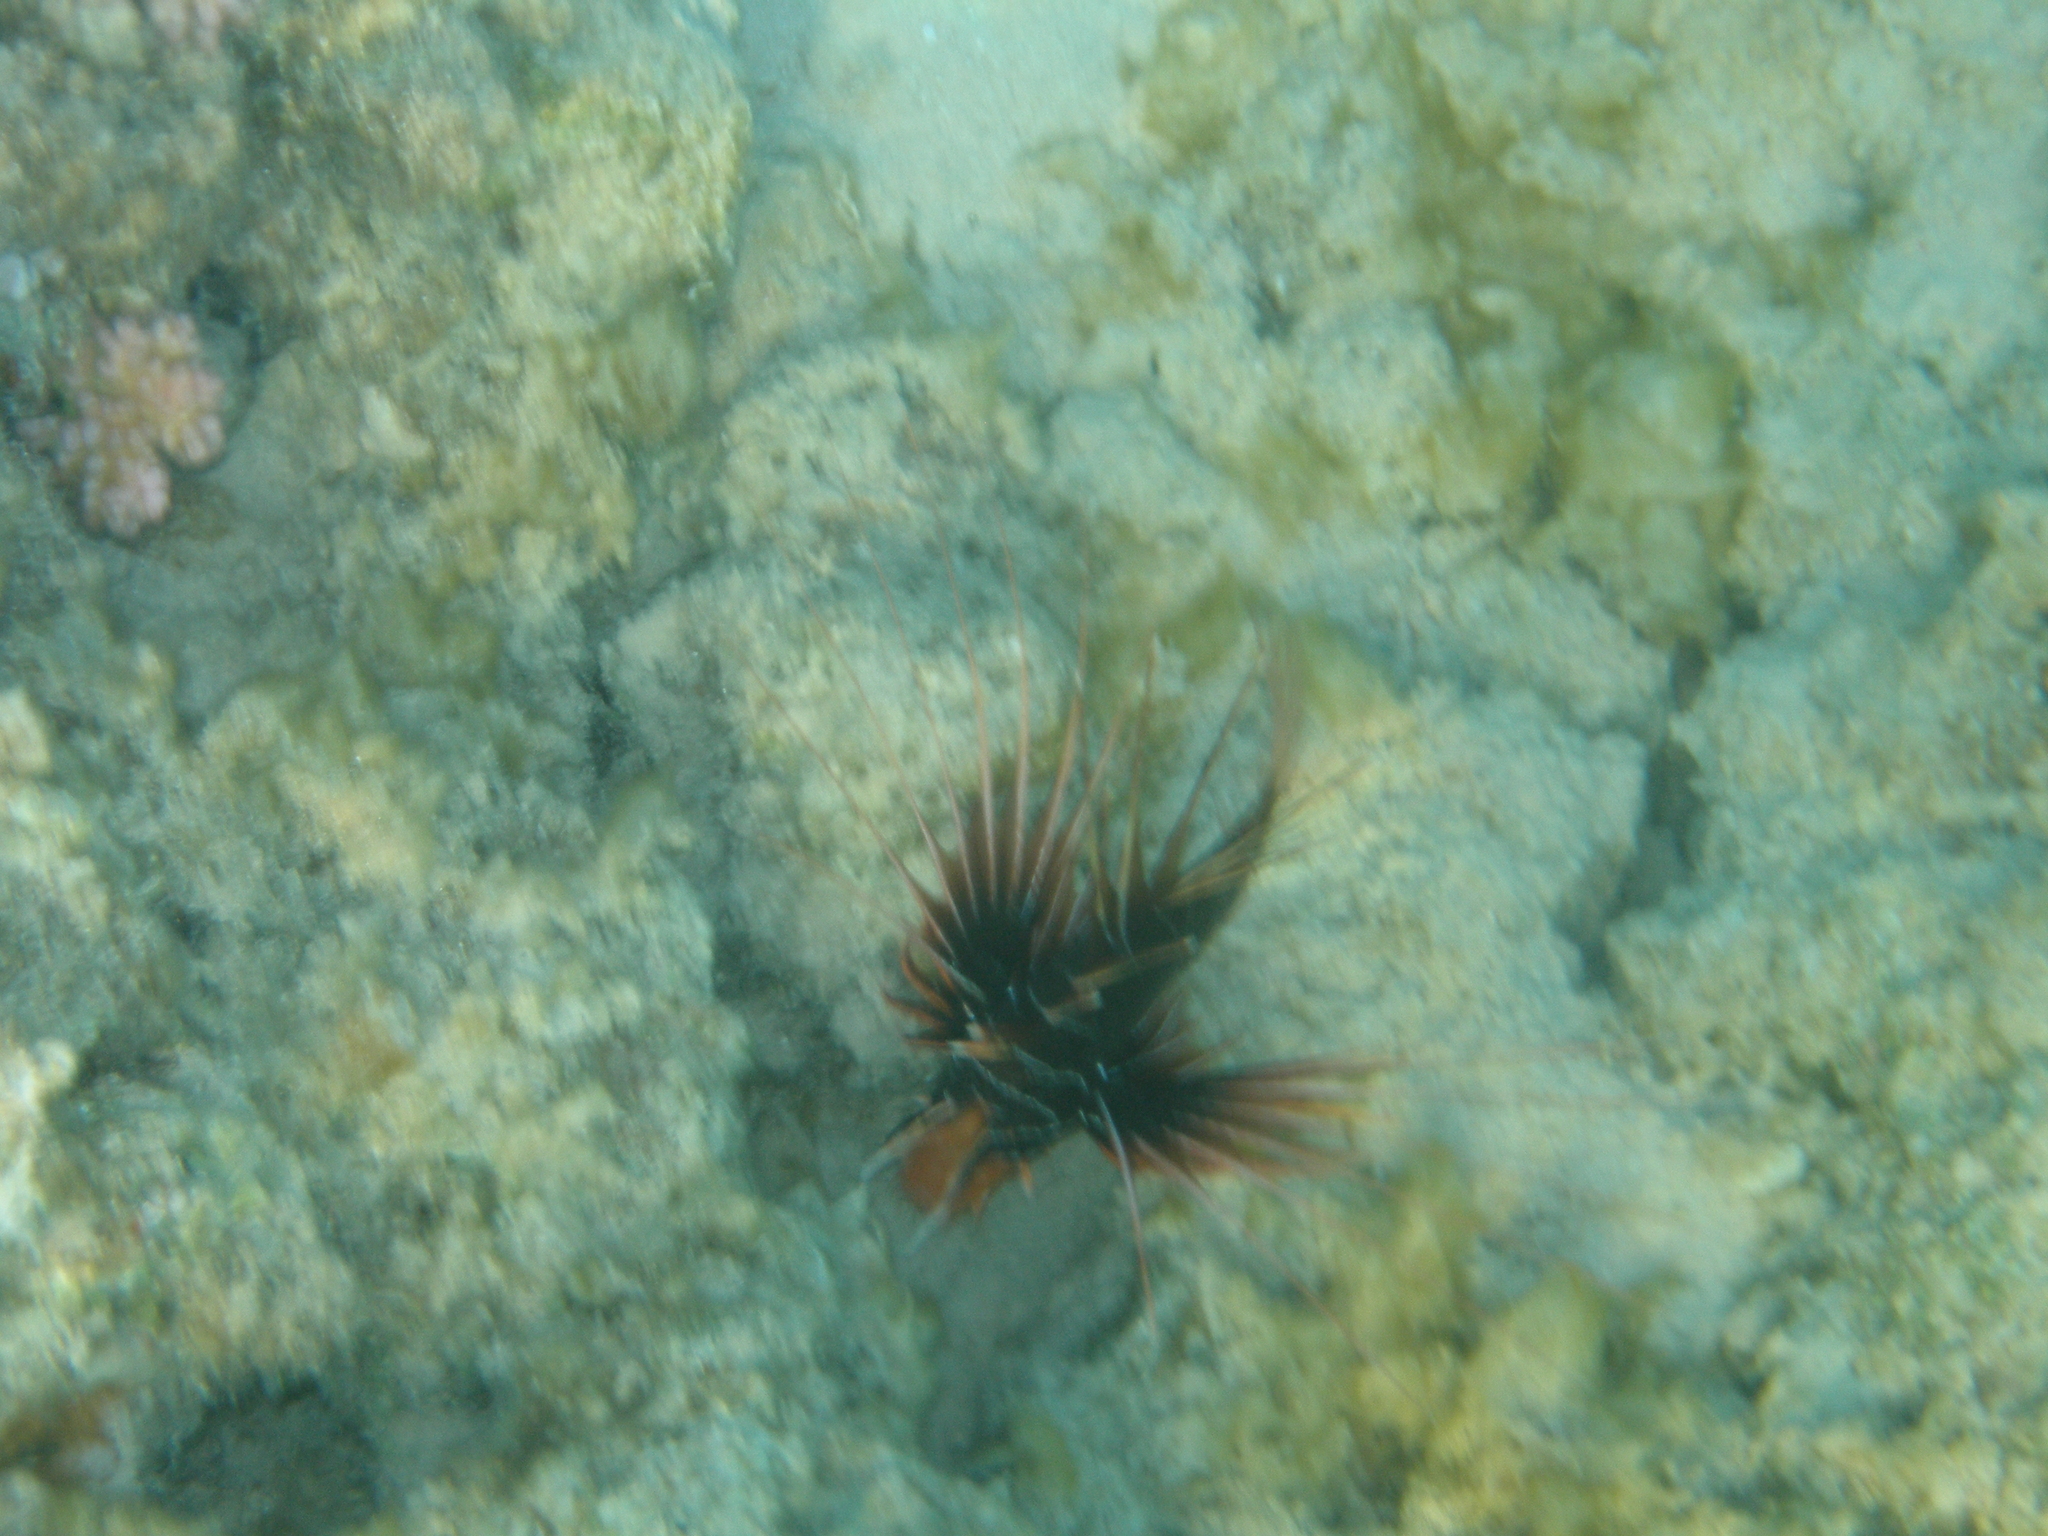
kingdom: Animalia
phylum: Chordata
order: Scorpaeniformes
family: Scorpaenidae
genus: Pterois
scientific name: Pterois cincta
